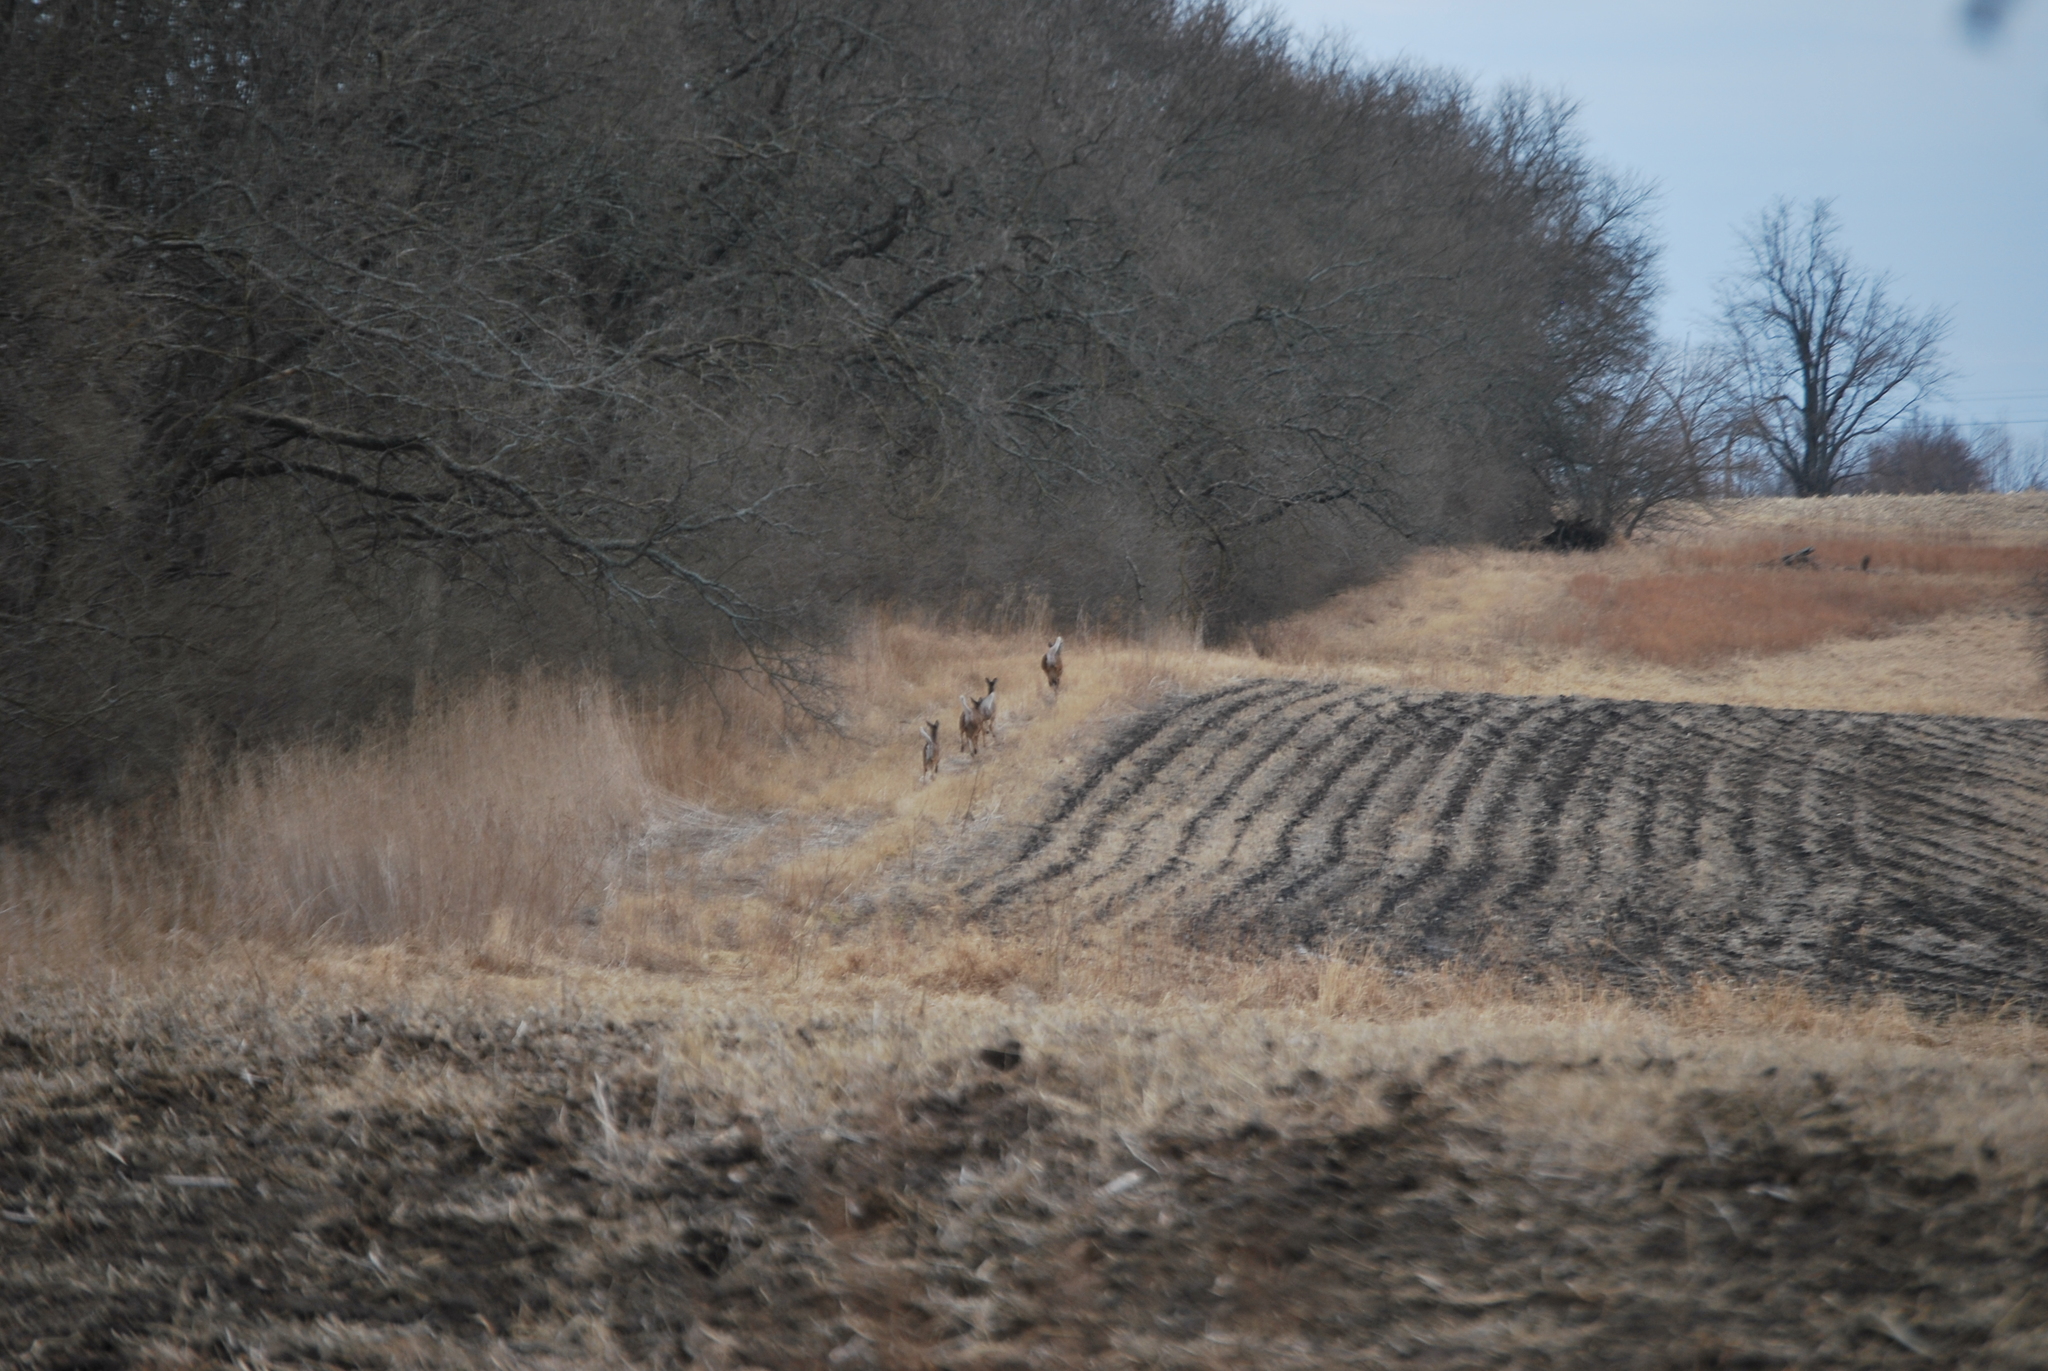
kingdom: Animalia
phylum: Chordata
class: Mammalia
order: Artiodactyla
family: Cervidae
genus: Odocoileus
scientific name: Odocoileus virginianus
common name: White-tailed deer
